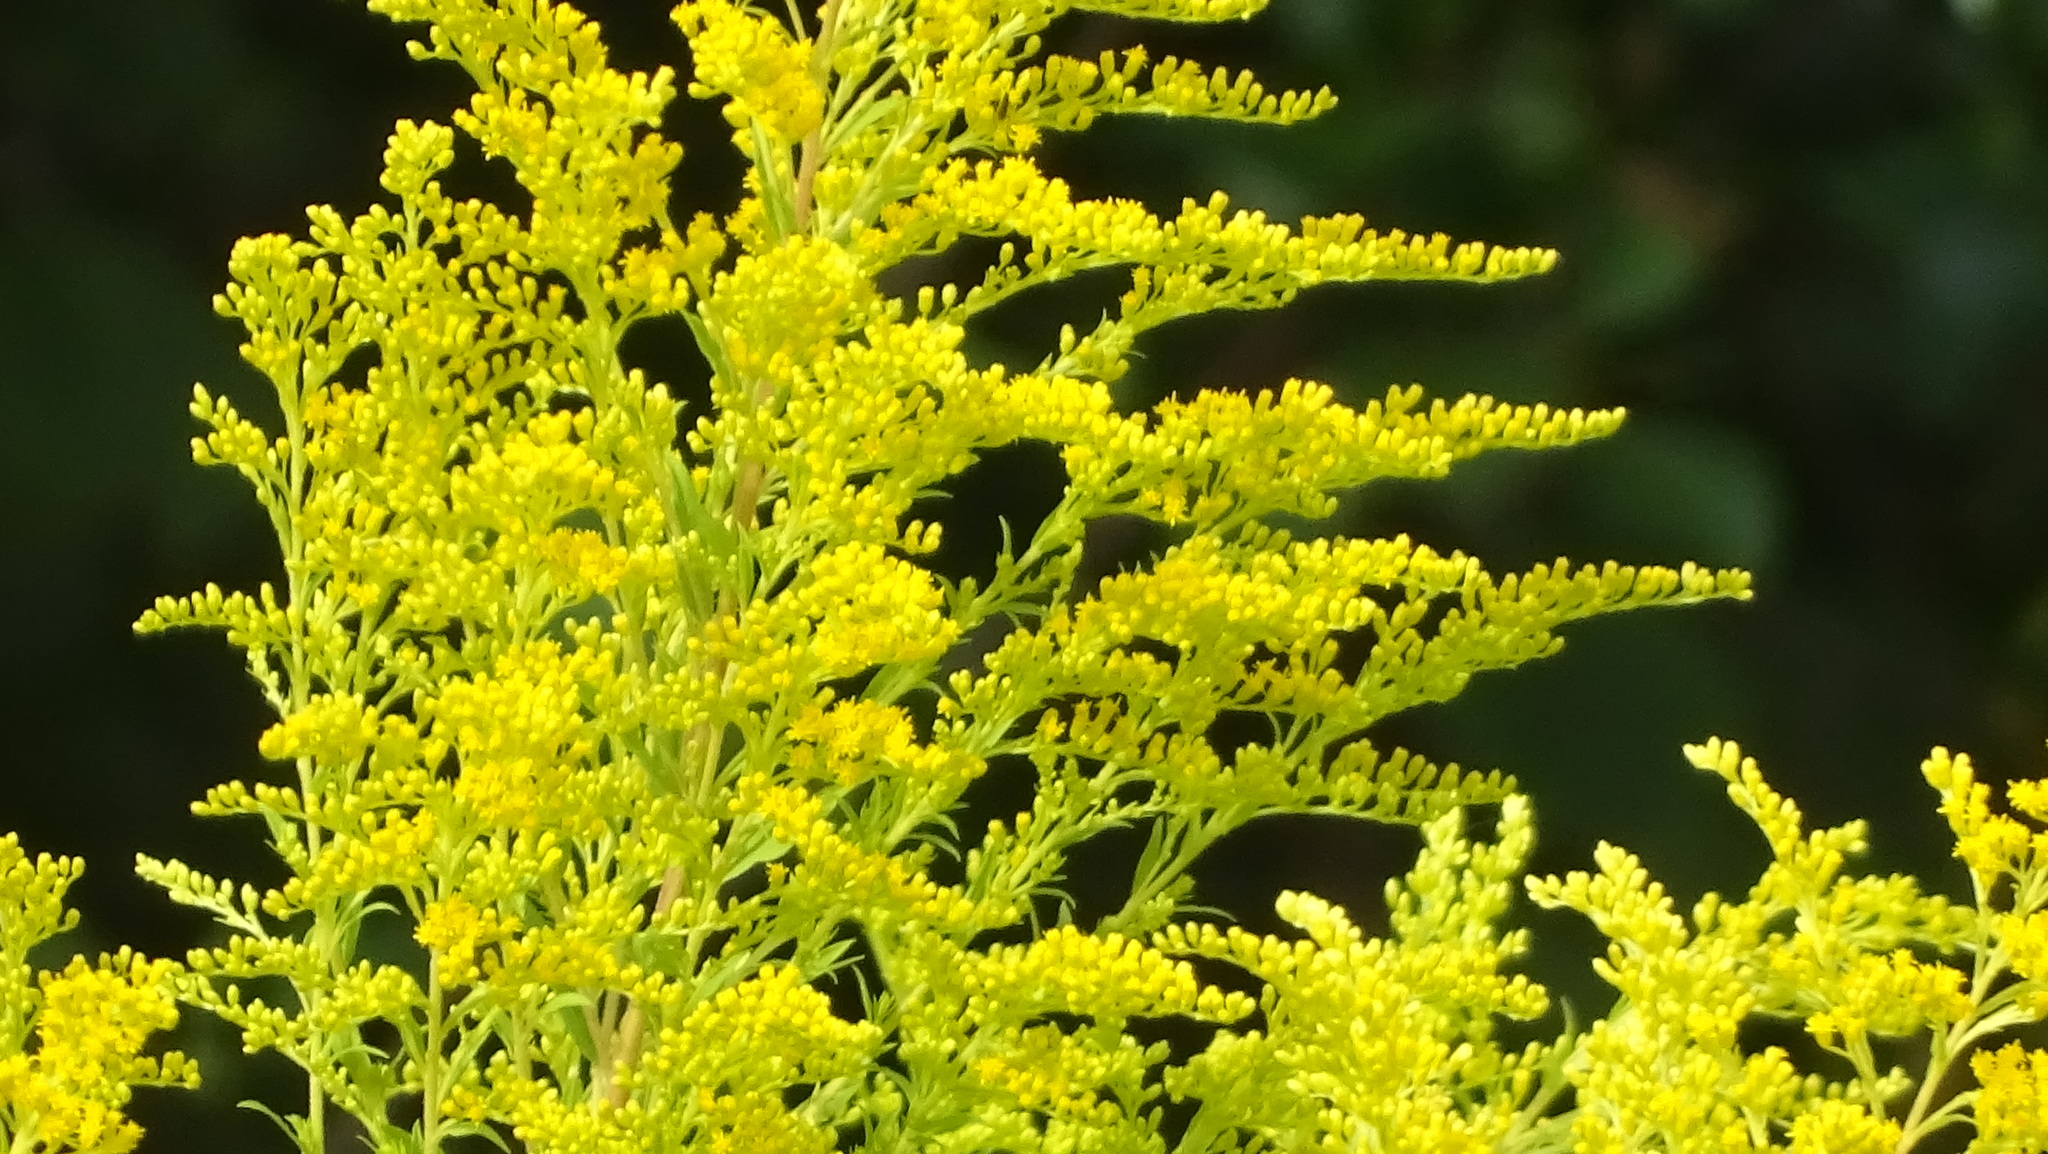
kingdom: Plantae
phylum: Tracheophyta
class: Magnoliopsida
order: Asterales
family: Asteraceae
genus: Solidago
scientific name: Solidago canadensis
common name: Canada goldenrod
